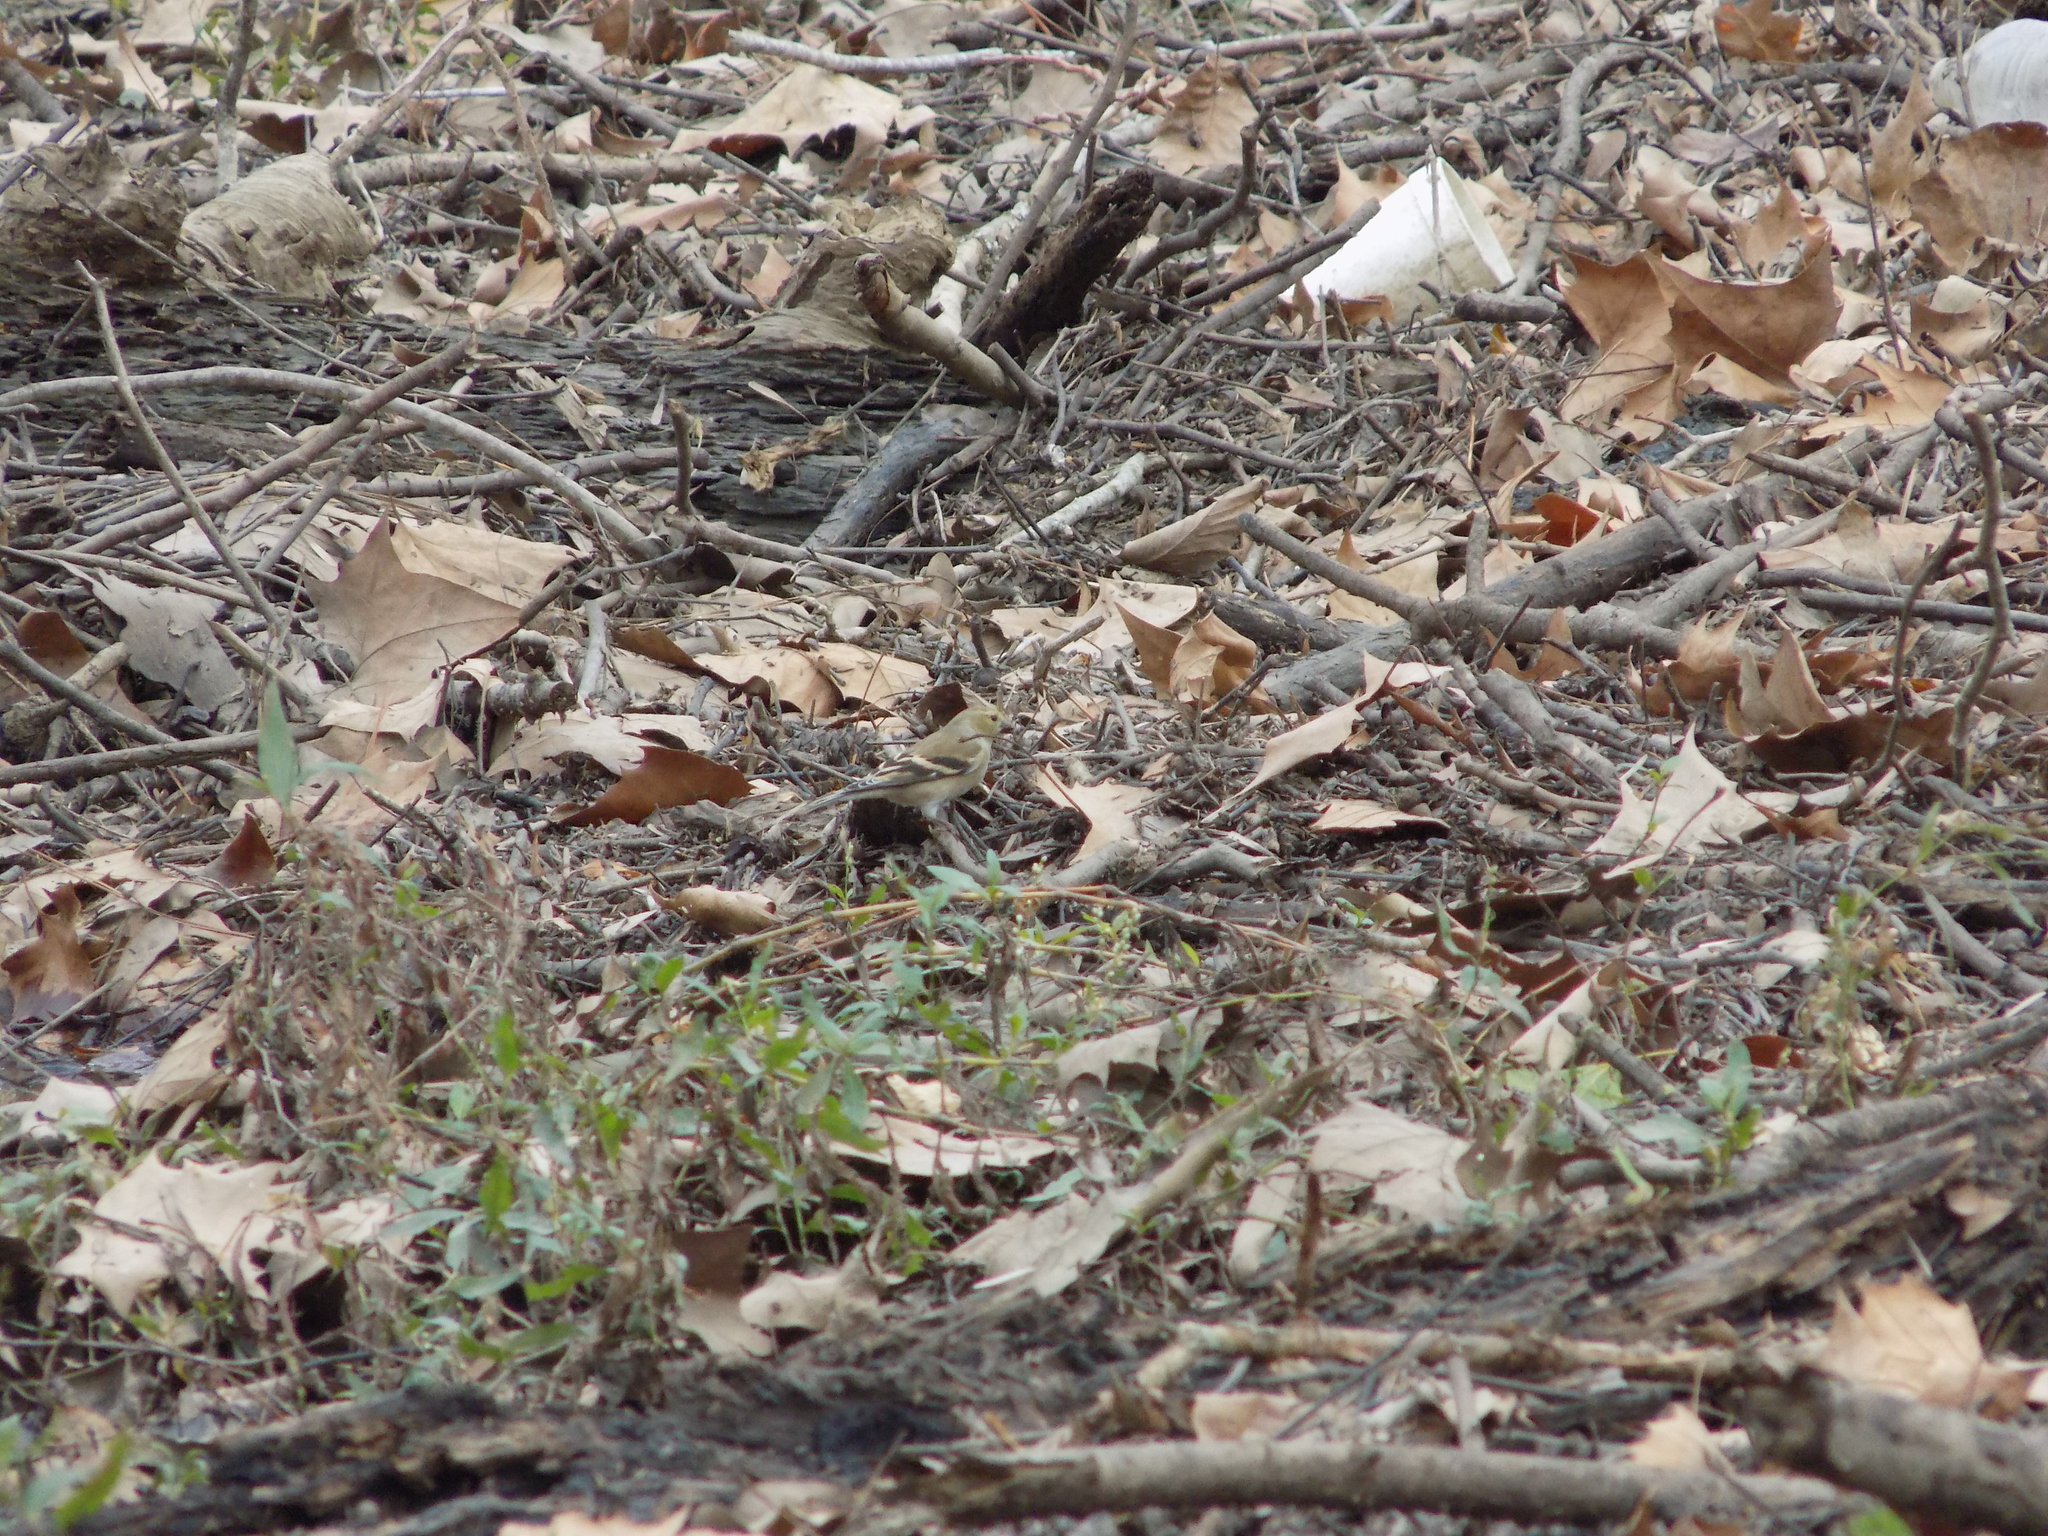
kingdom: Animalia
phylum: Chordata
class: Aves
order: Passeriformes
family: Fringillidae
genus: Spinus
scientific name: Spinus tristis
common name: American goldfinch
